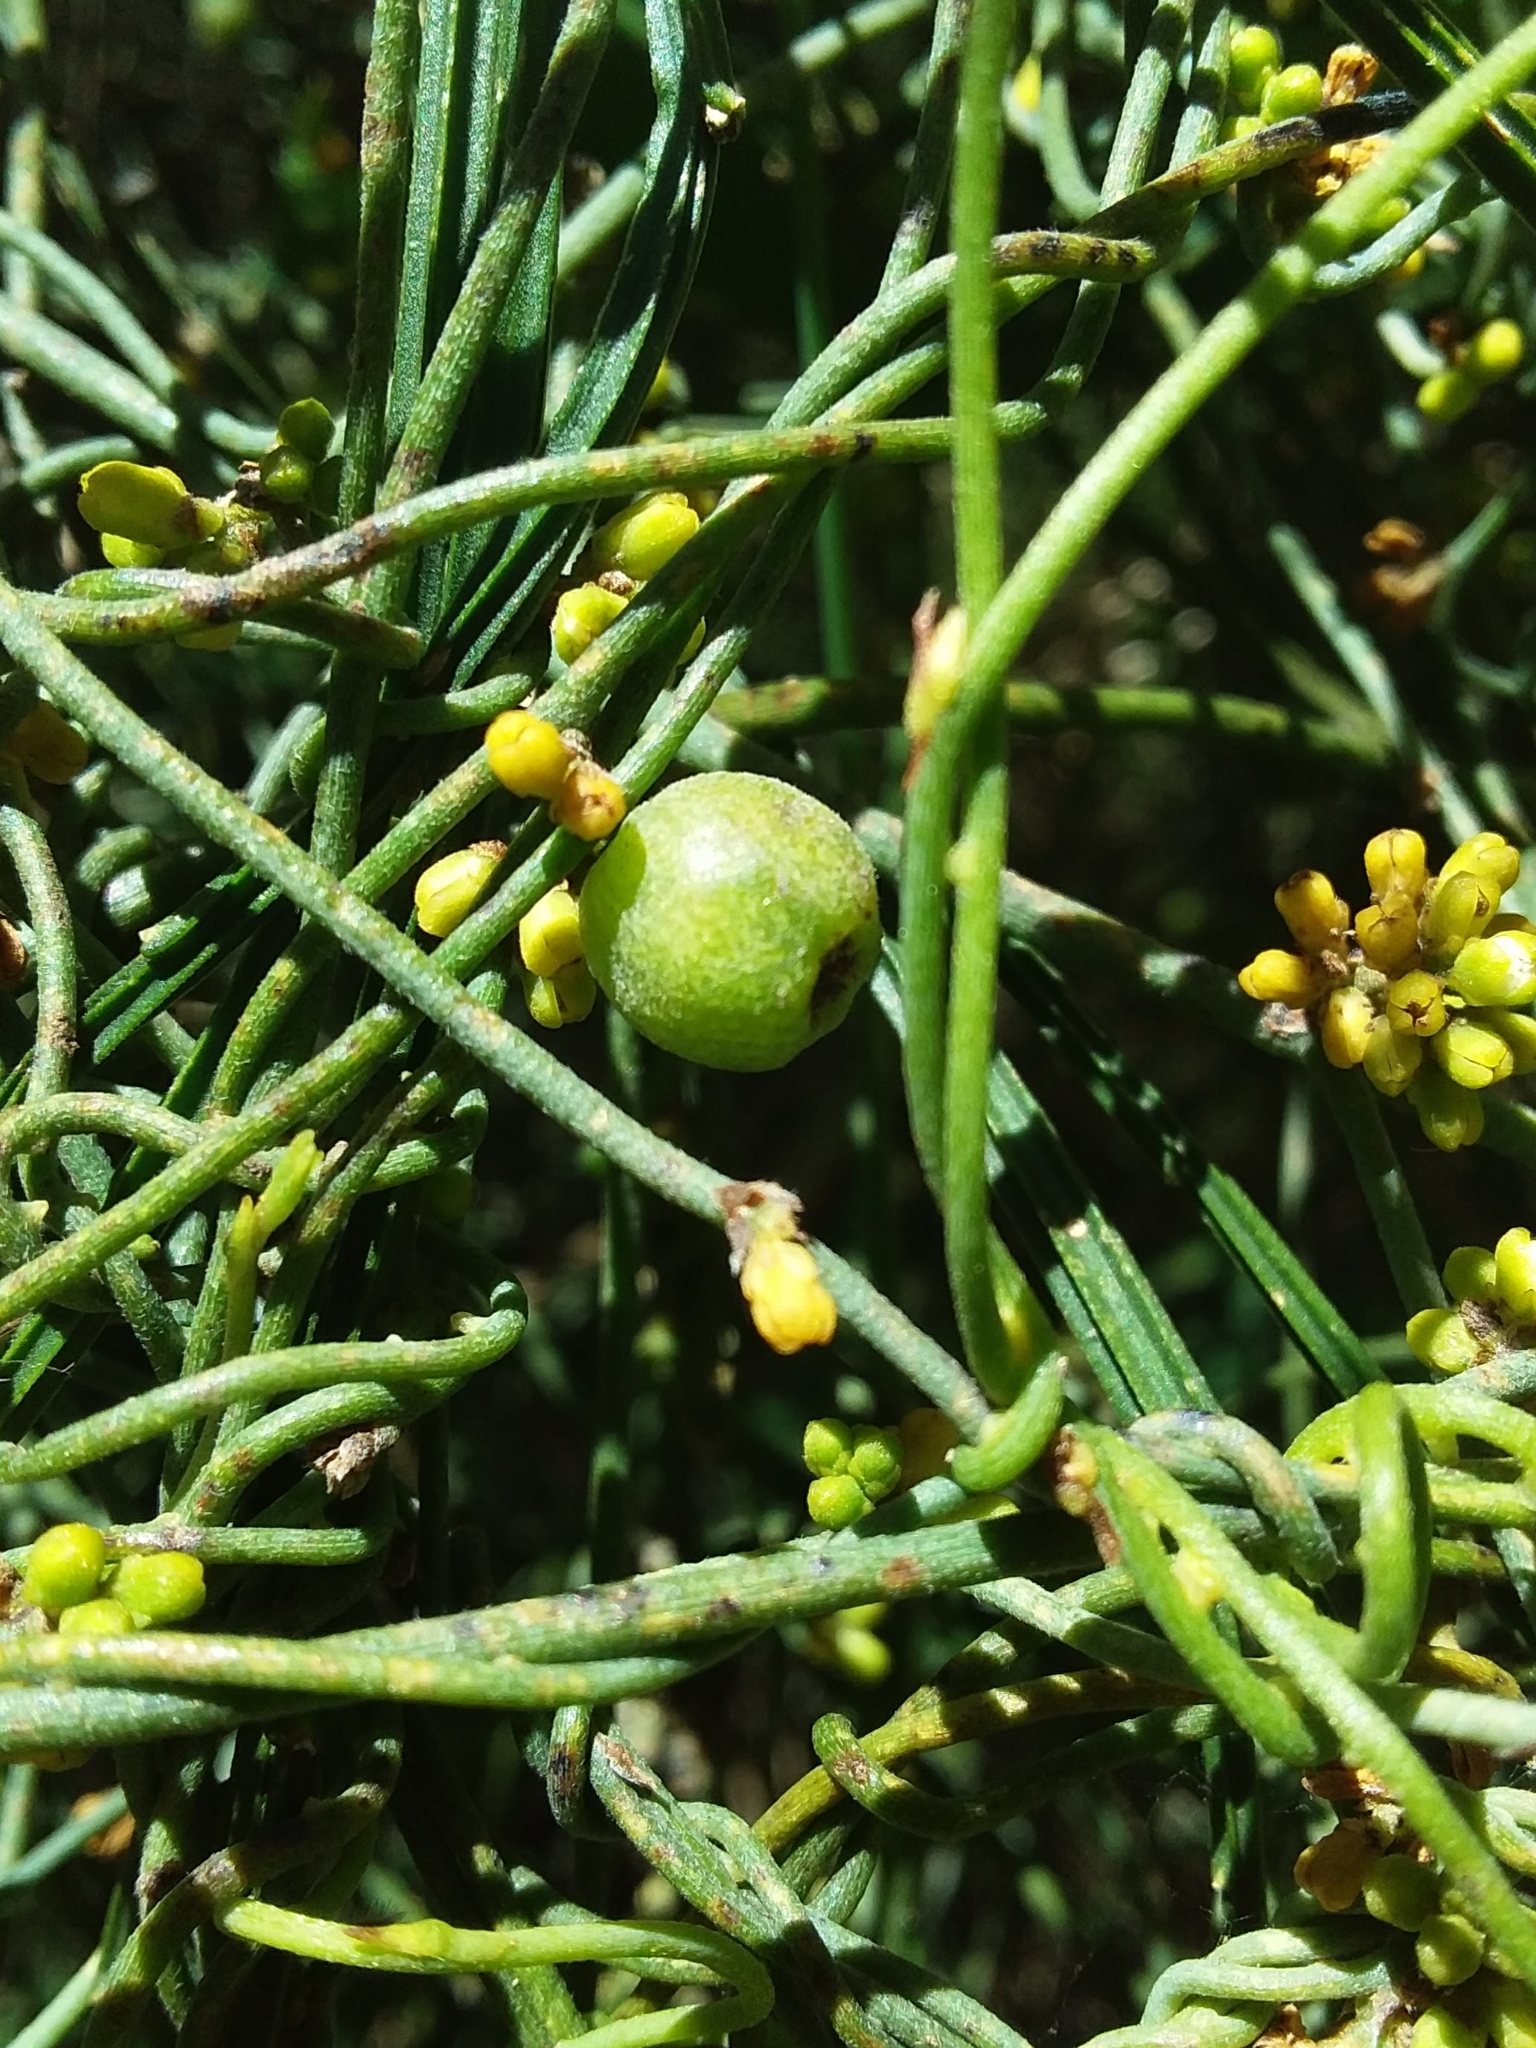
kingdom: Plantae
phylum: Tracheophyta
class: Magnoliopsida
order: Laurales
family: Lauraceae
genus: Cassytha
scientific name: Cassytha pubescens
